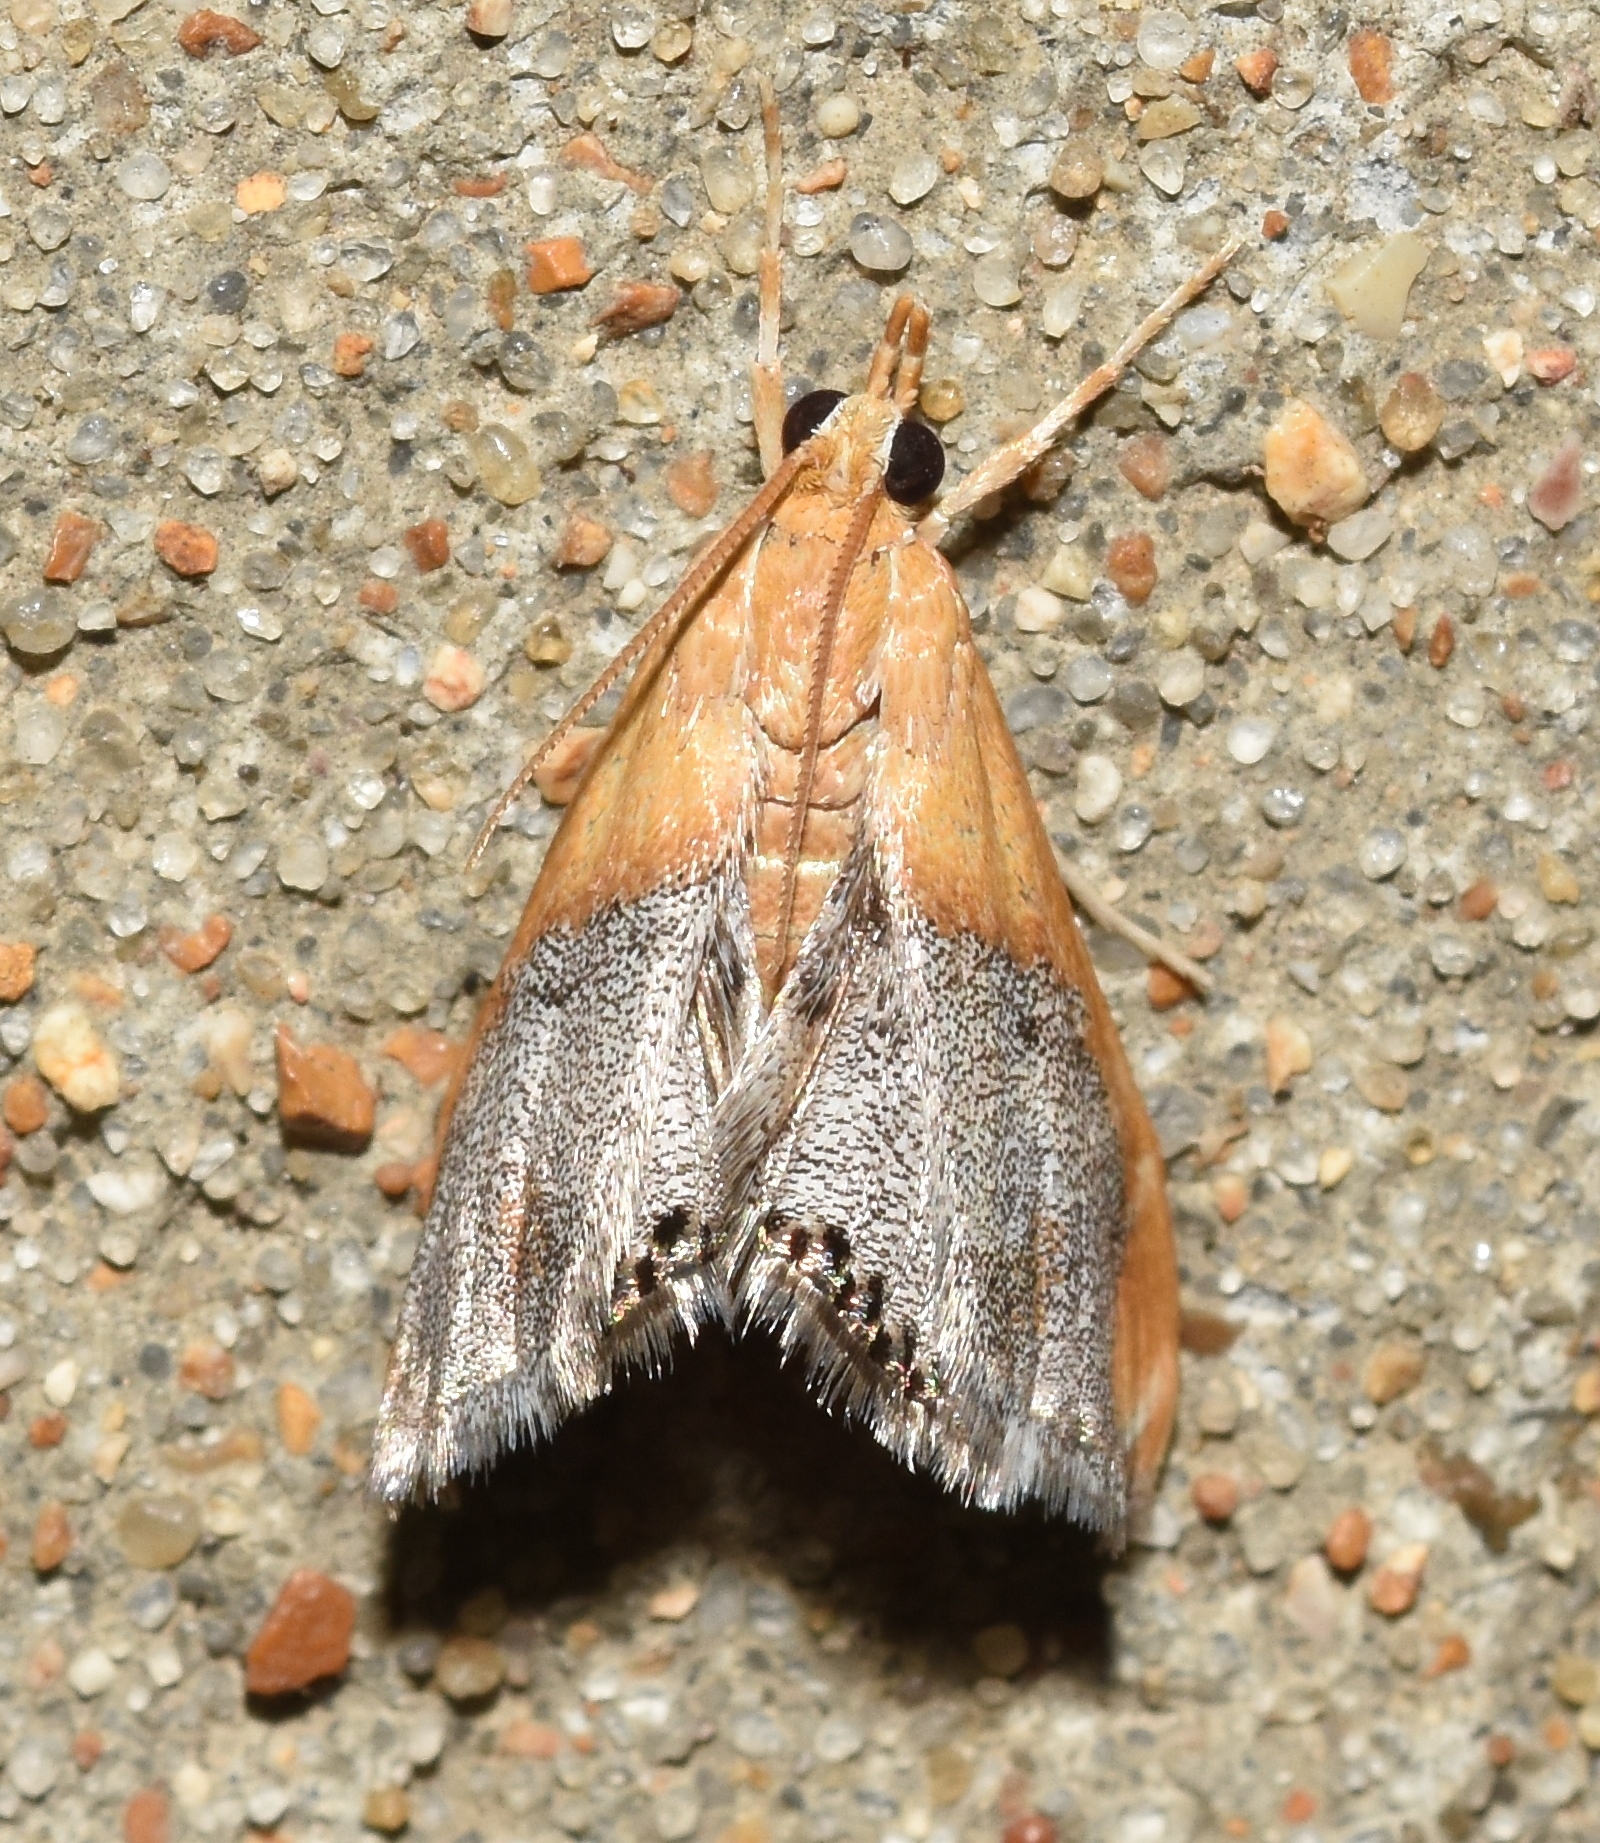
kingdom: Animalia
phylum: Arthropoda
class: Insecta
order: Lepidoptera
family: Crambidae
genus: Chalcoela
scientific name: Chalcoela iphitalis
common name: Sooty-winged chalcoela moth
